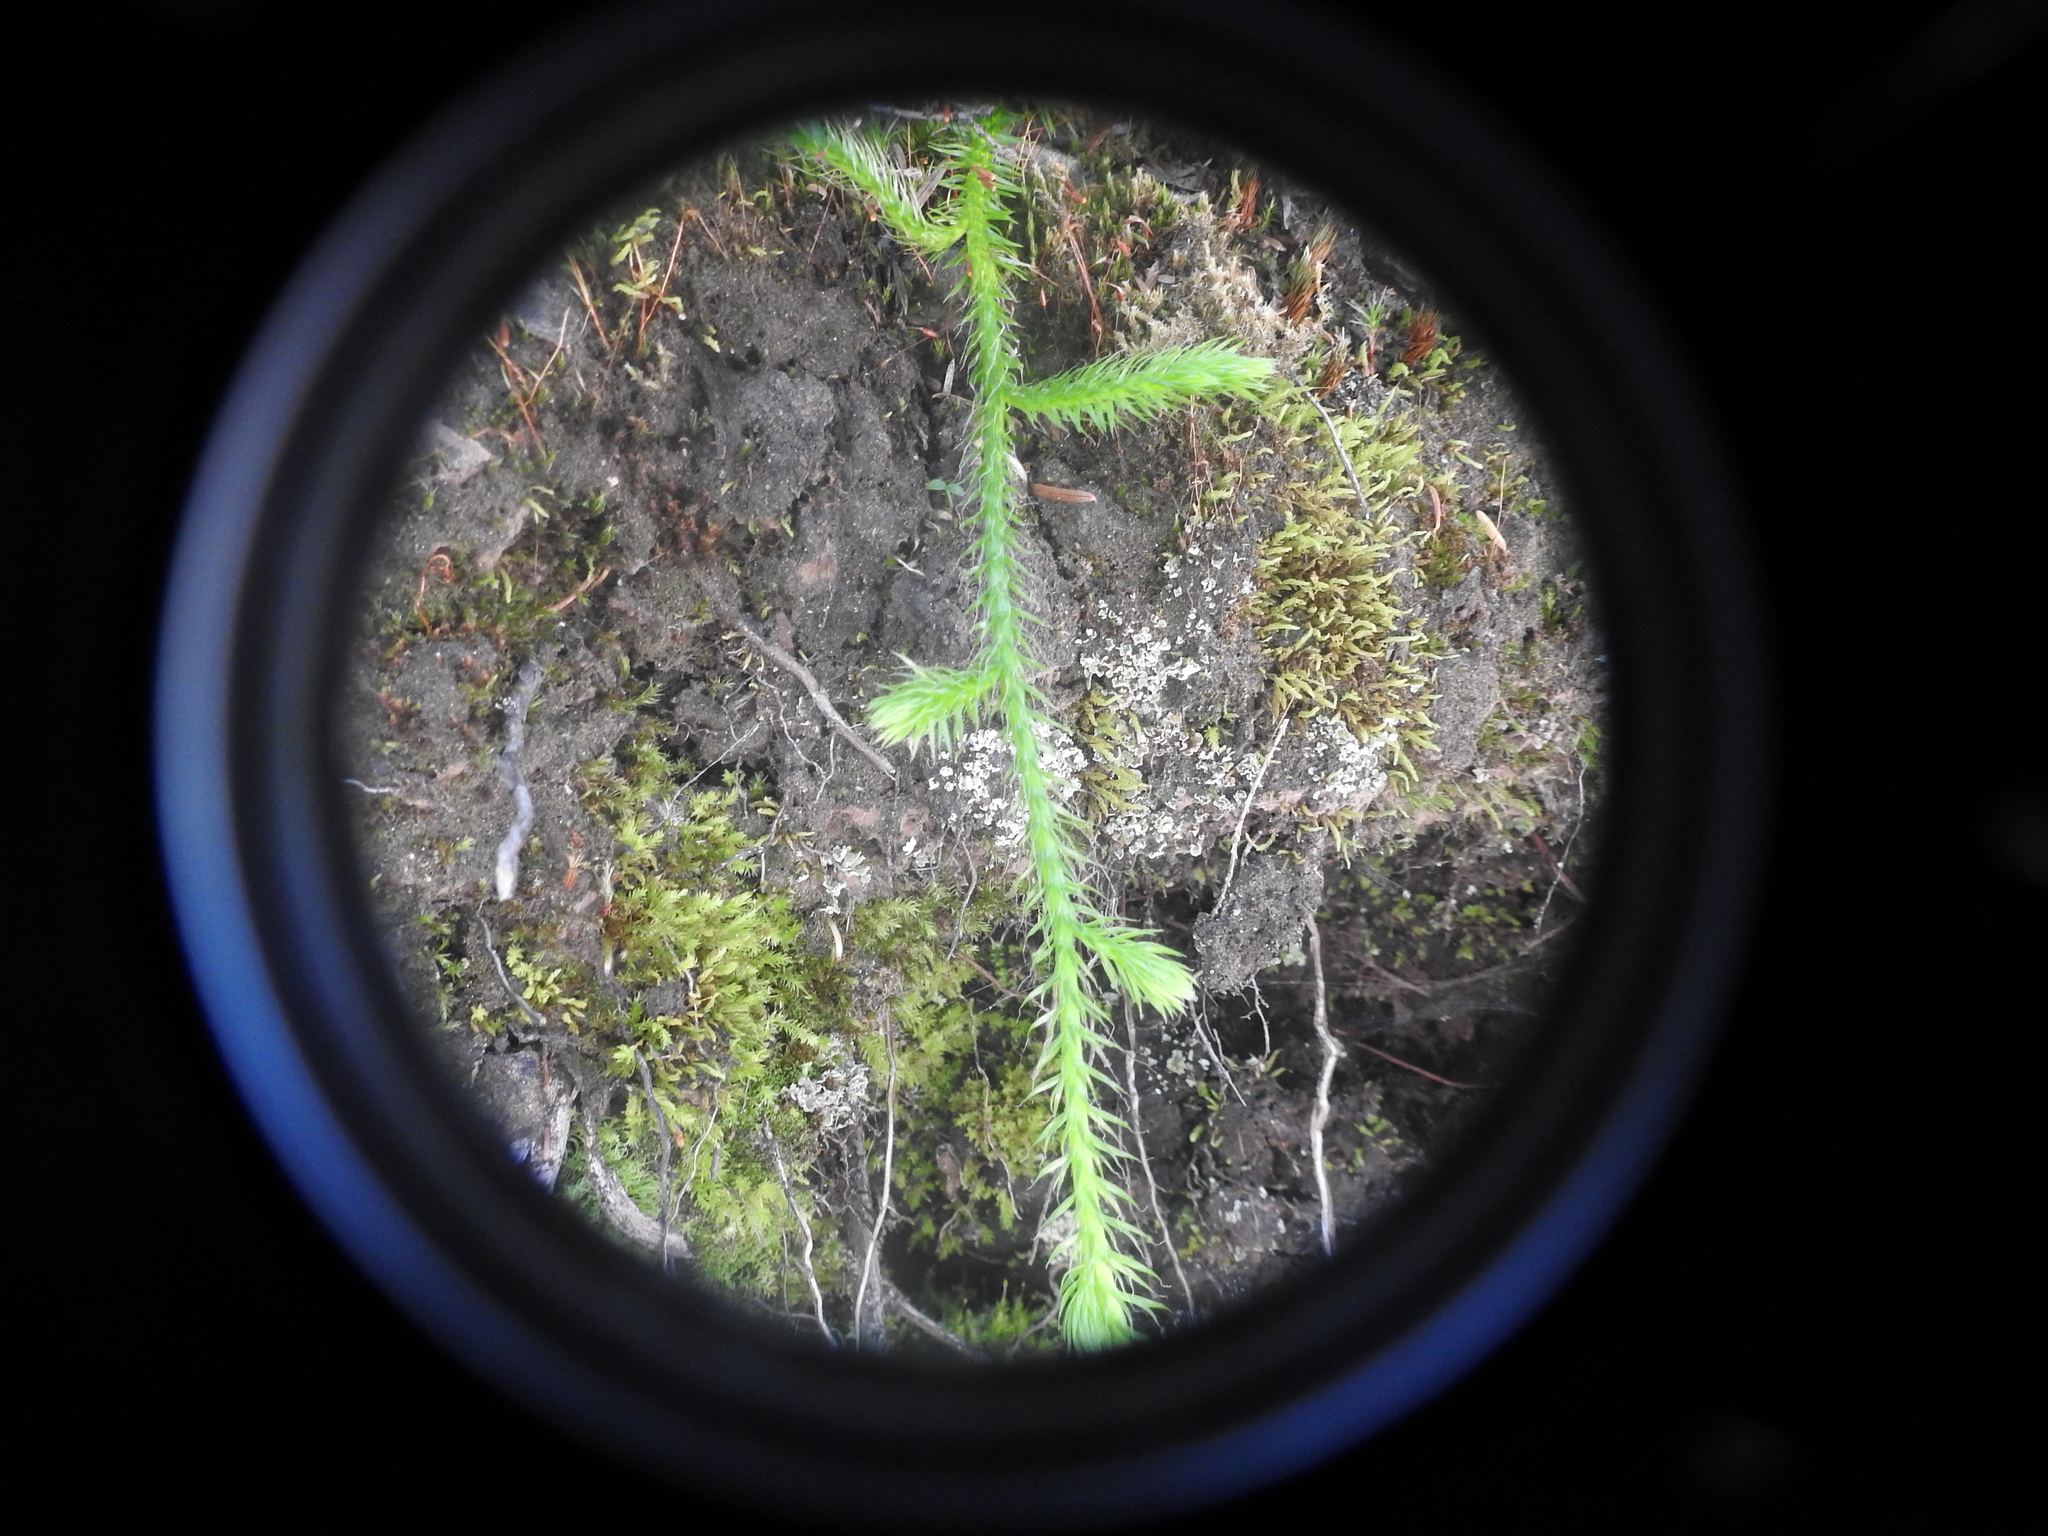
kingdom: Plantae
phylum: Tracheophyta
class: Lycopodiopsida
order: Lycopodiales
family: Lycopodiaceae
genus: Lycopodium
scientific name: Lycopodium clavatum
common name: Stag's-horn clubmoss
